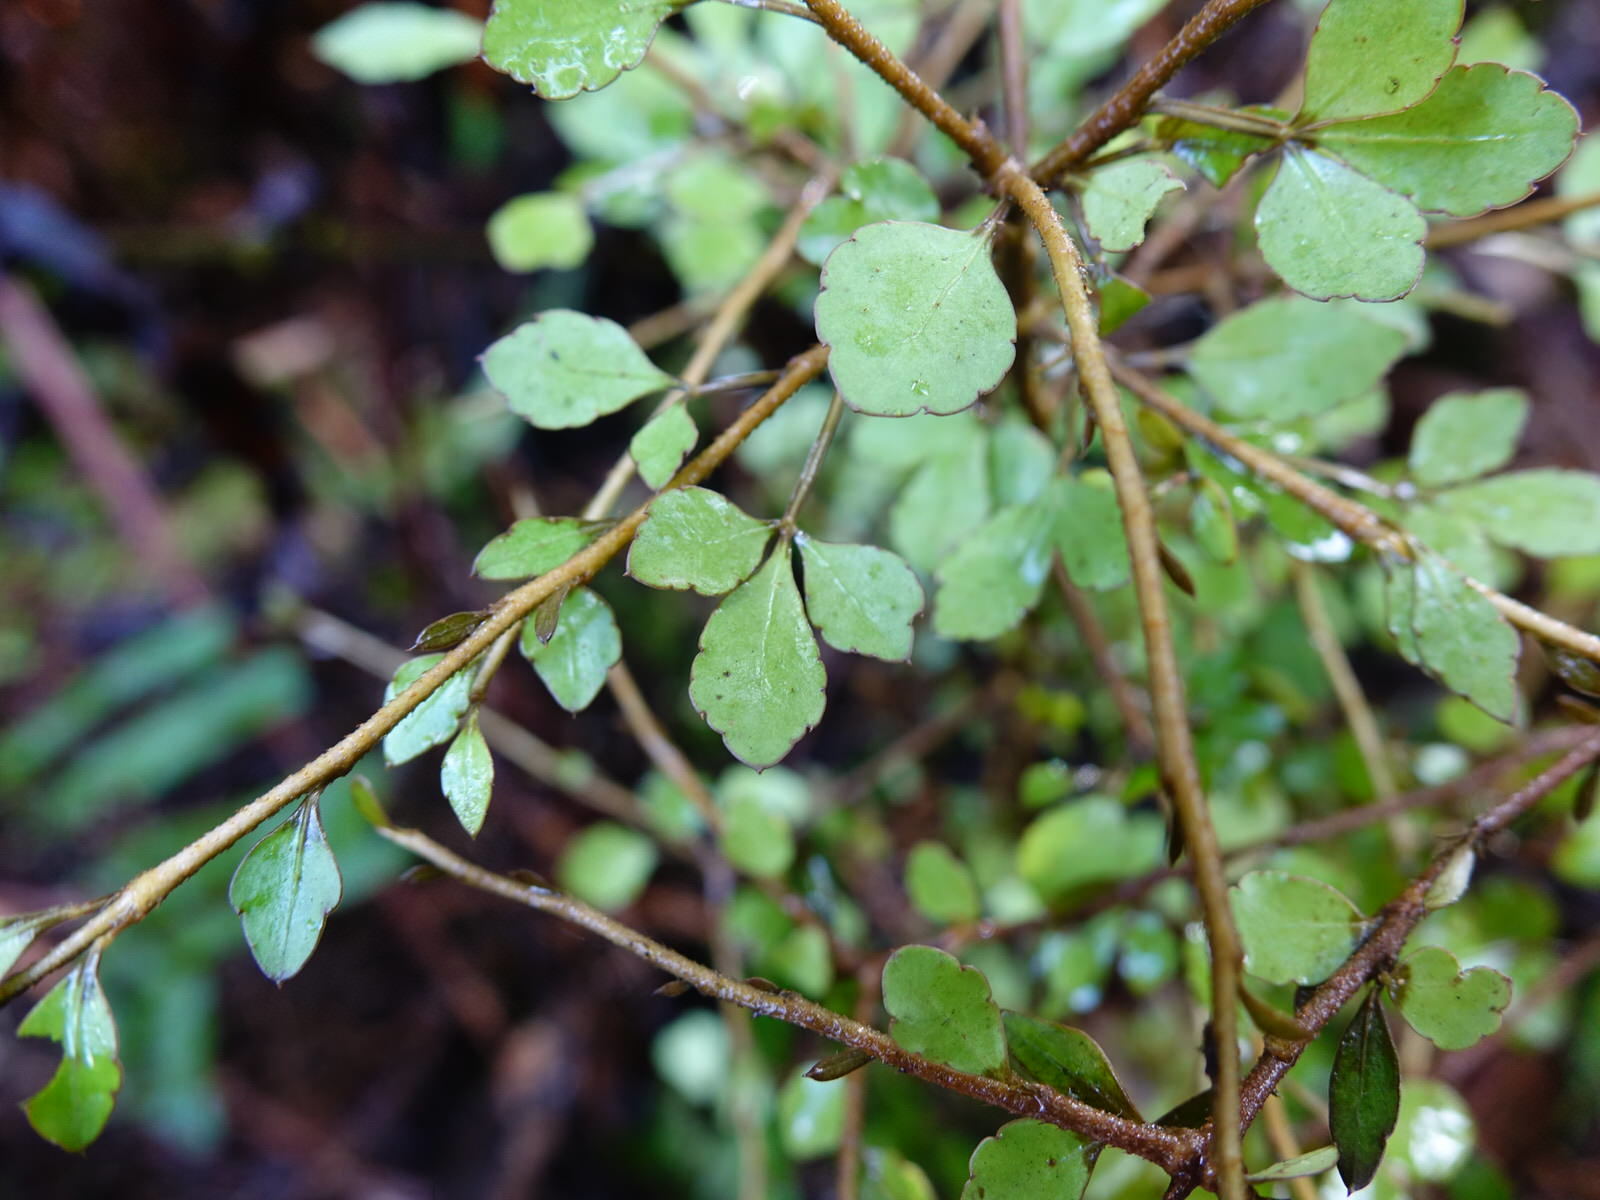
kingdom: Plantae
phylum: Tracheophyta
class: Magnoliopsida
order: Sapindales
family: Rutaceae
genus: Melicope
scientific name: Melicope simplex
